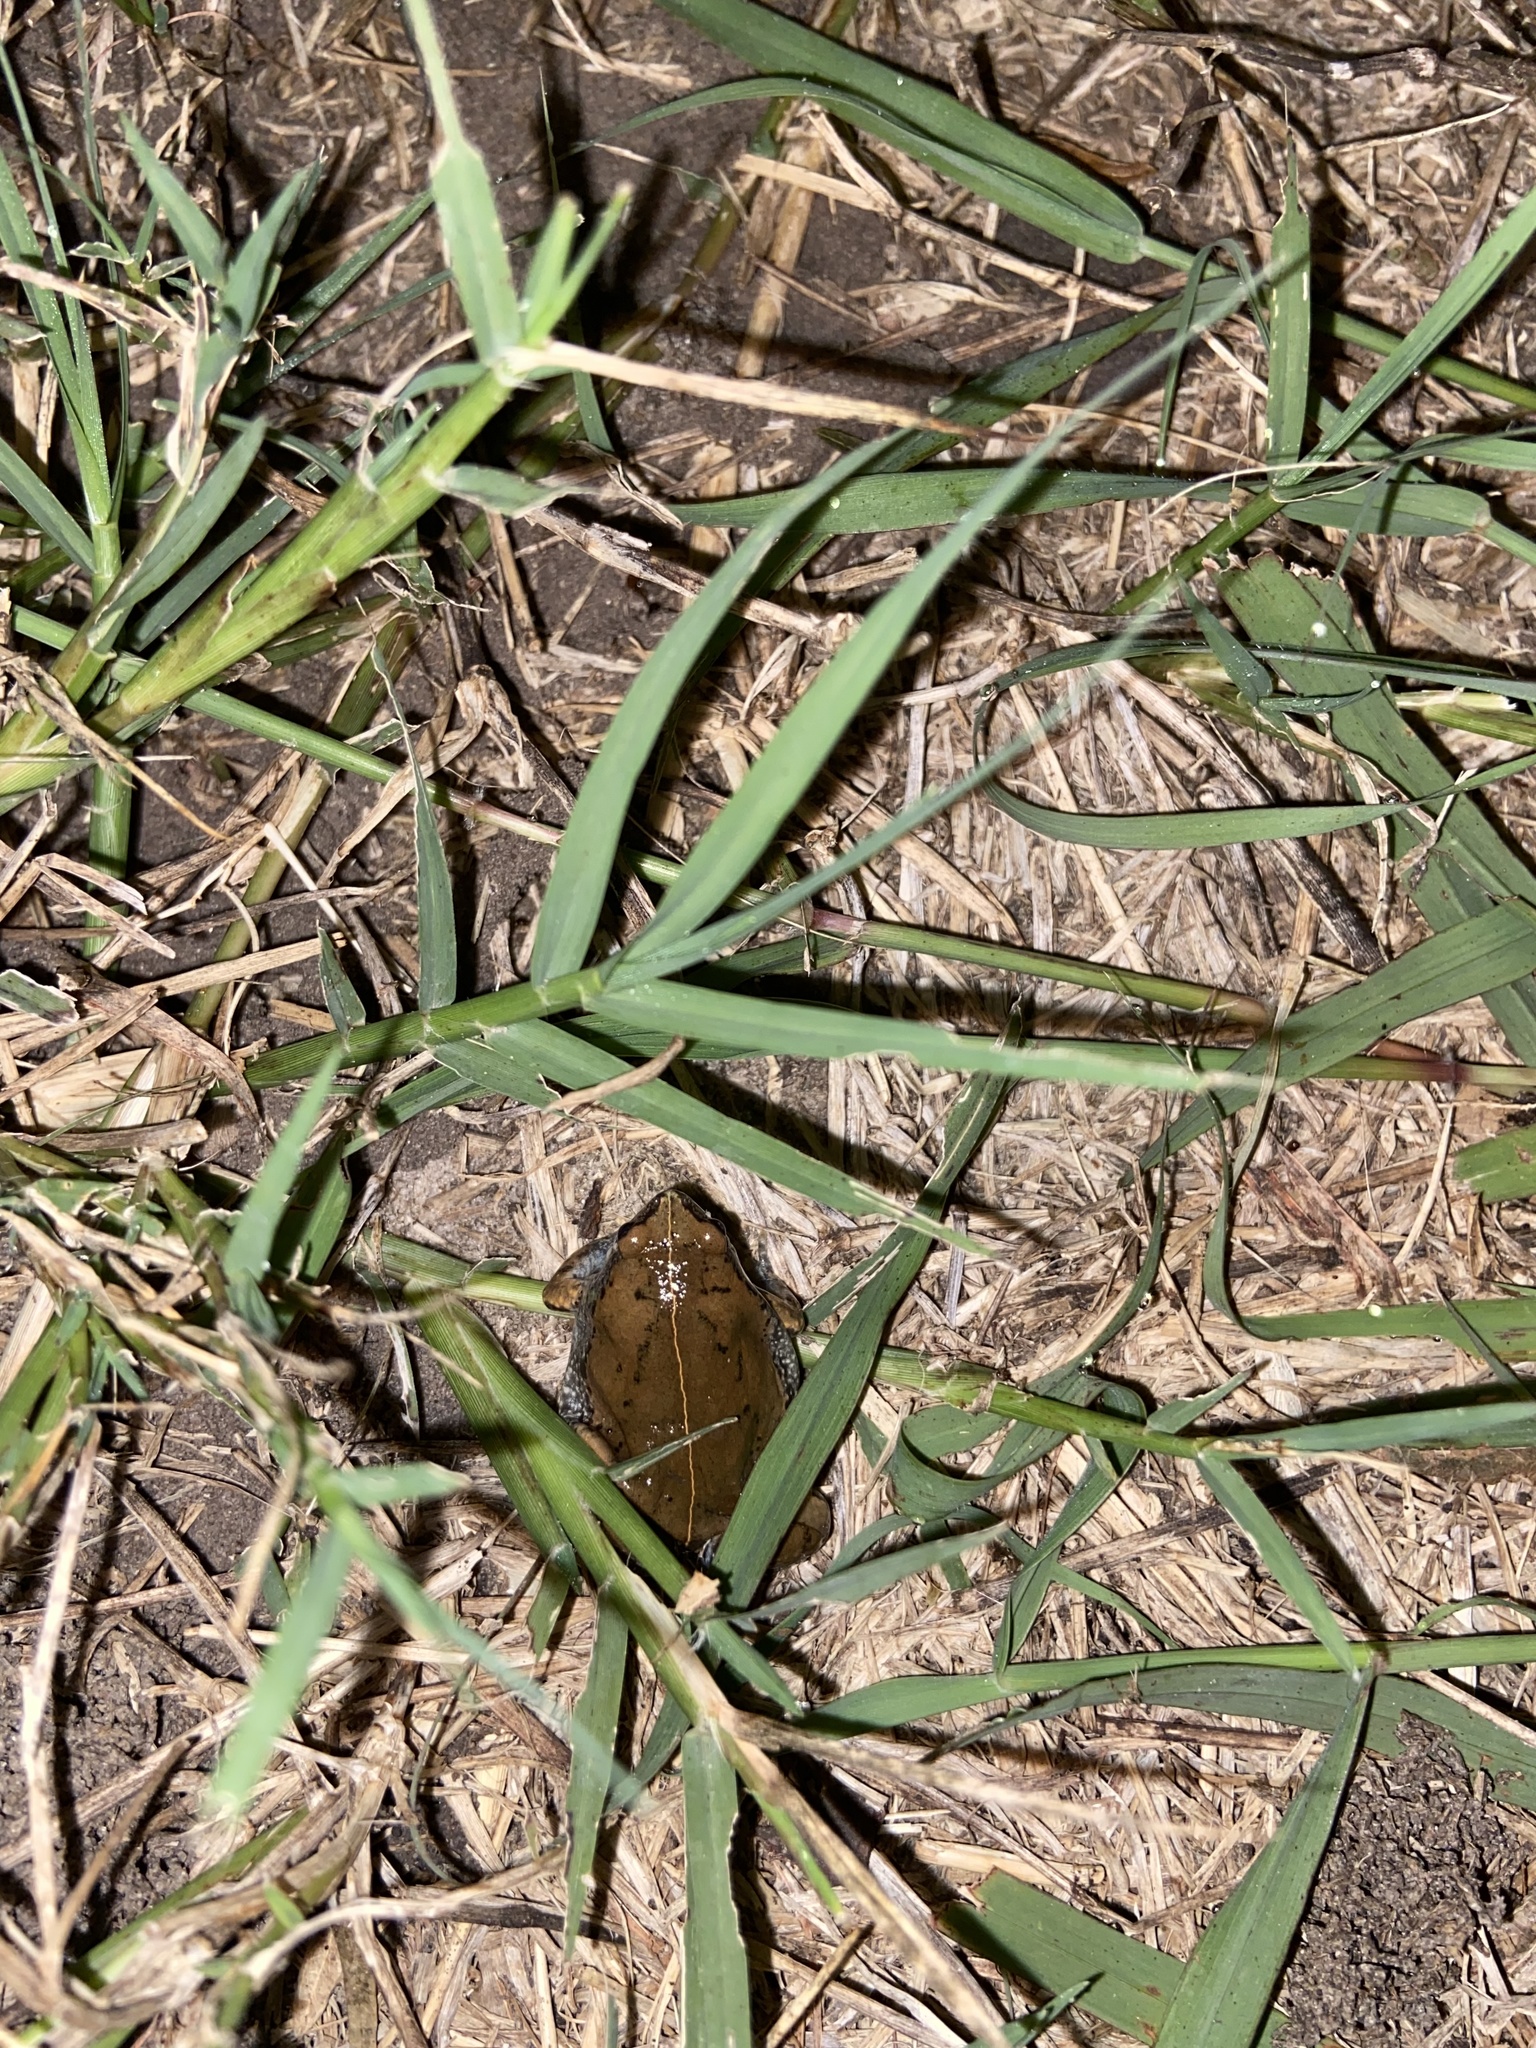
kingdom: Animalia
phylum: Chordata
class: Amphibia
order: Anura
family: Microhylidae
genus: Hypopachus
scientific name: Hypopachus variolosus
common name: Sheep frog
